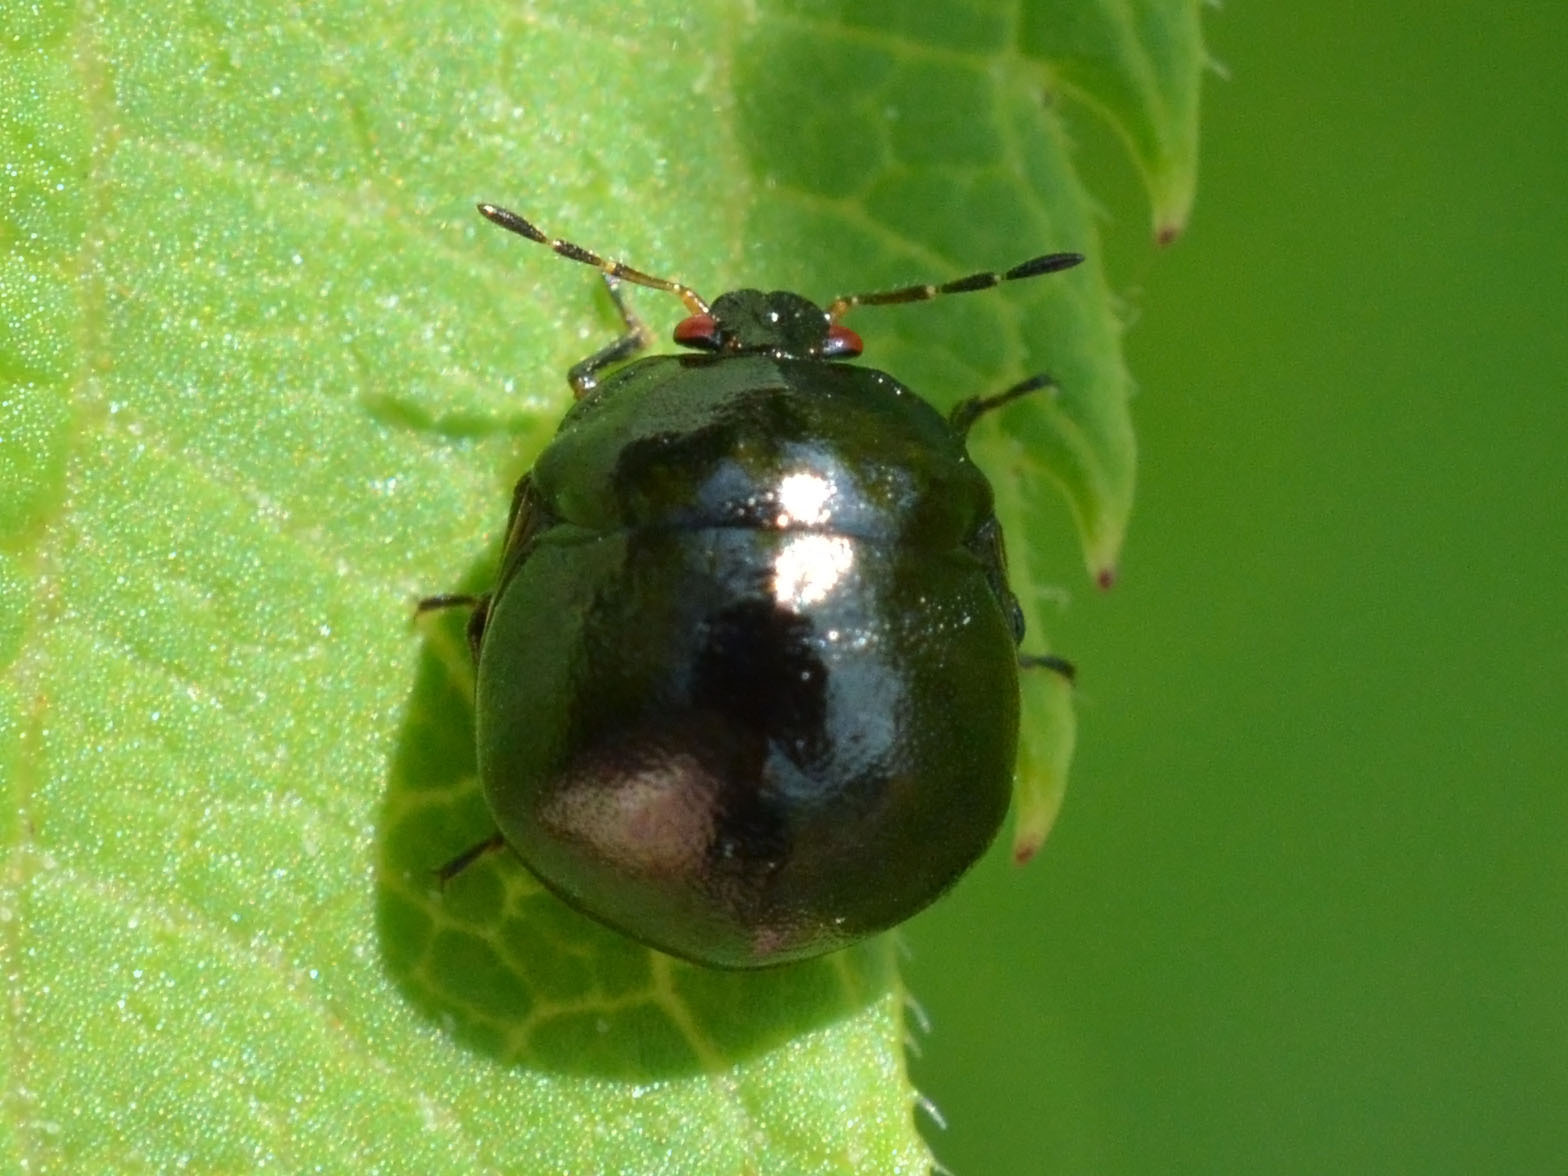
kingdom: Animalia
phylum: Arthropoda
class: Insecta
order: Hemiptera
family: Plataspidae
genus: Coptosoma
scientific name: Coptosoma scutellatum
